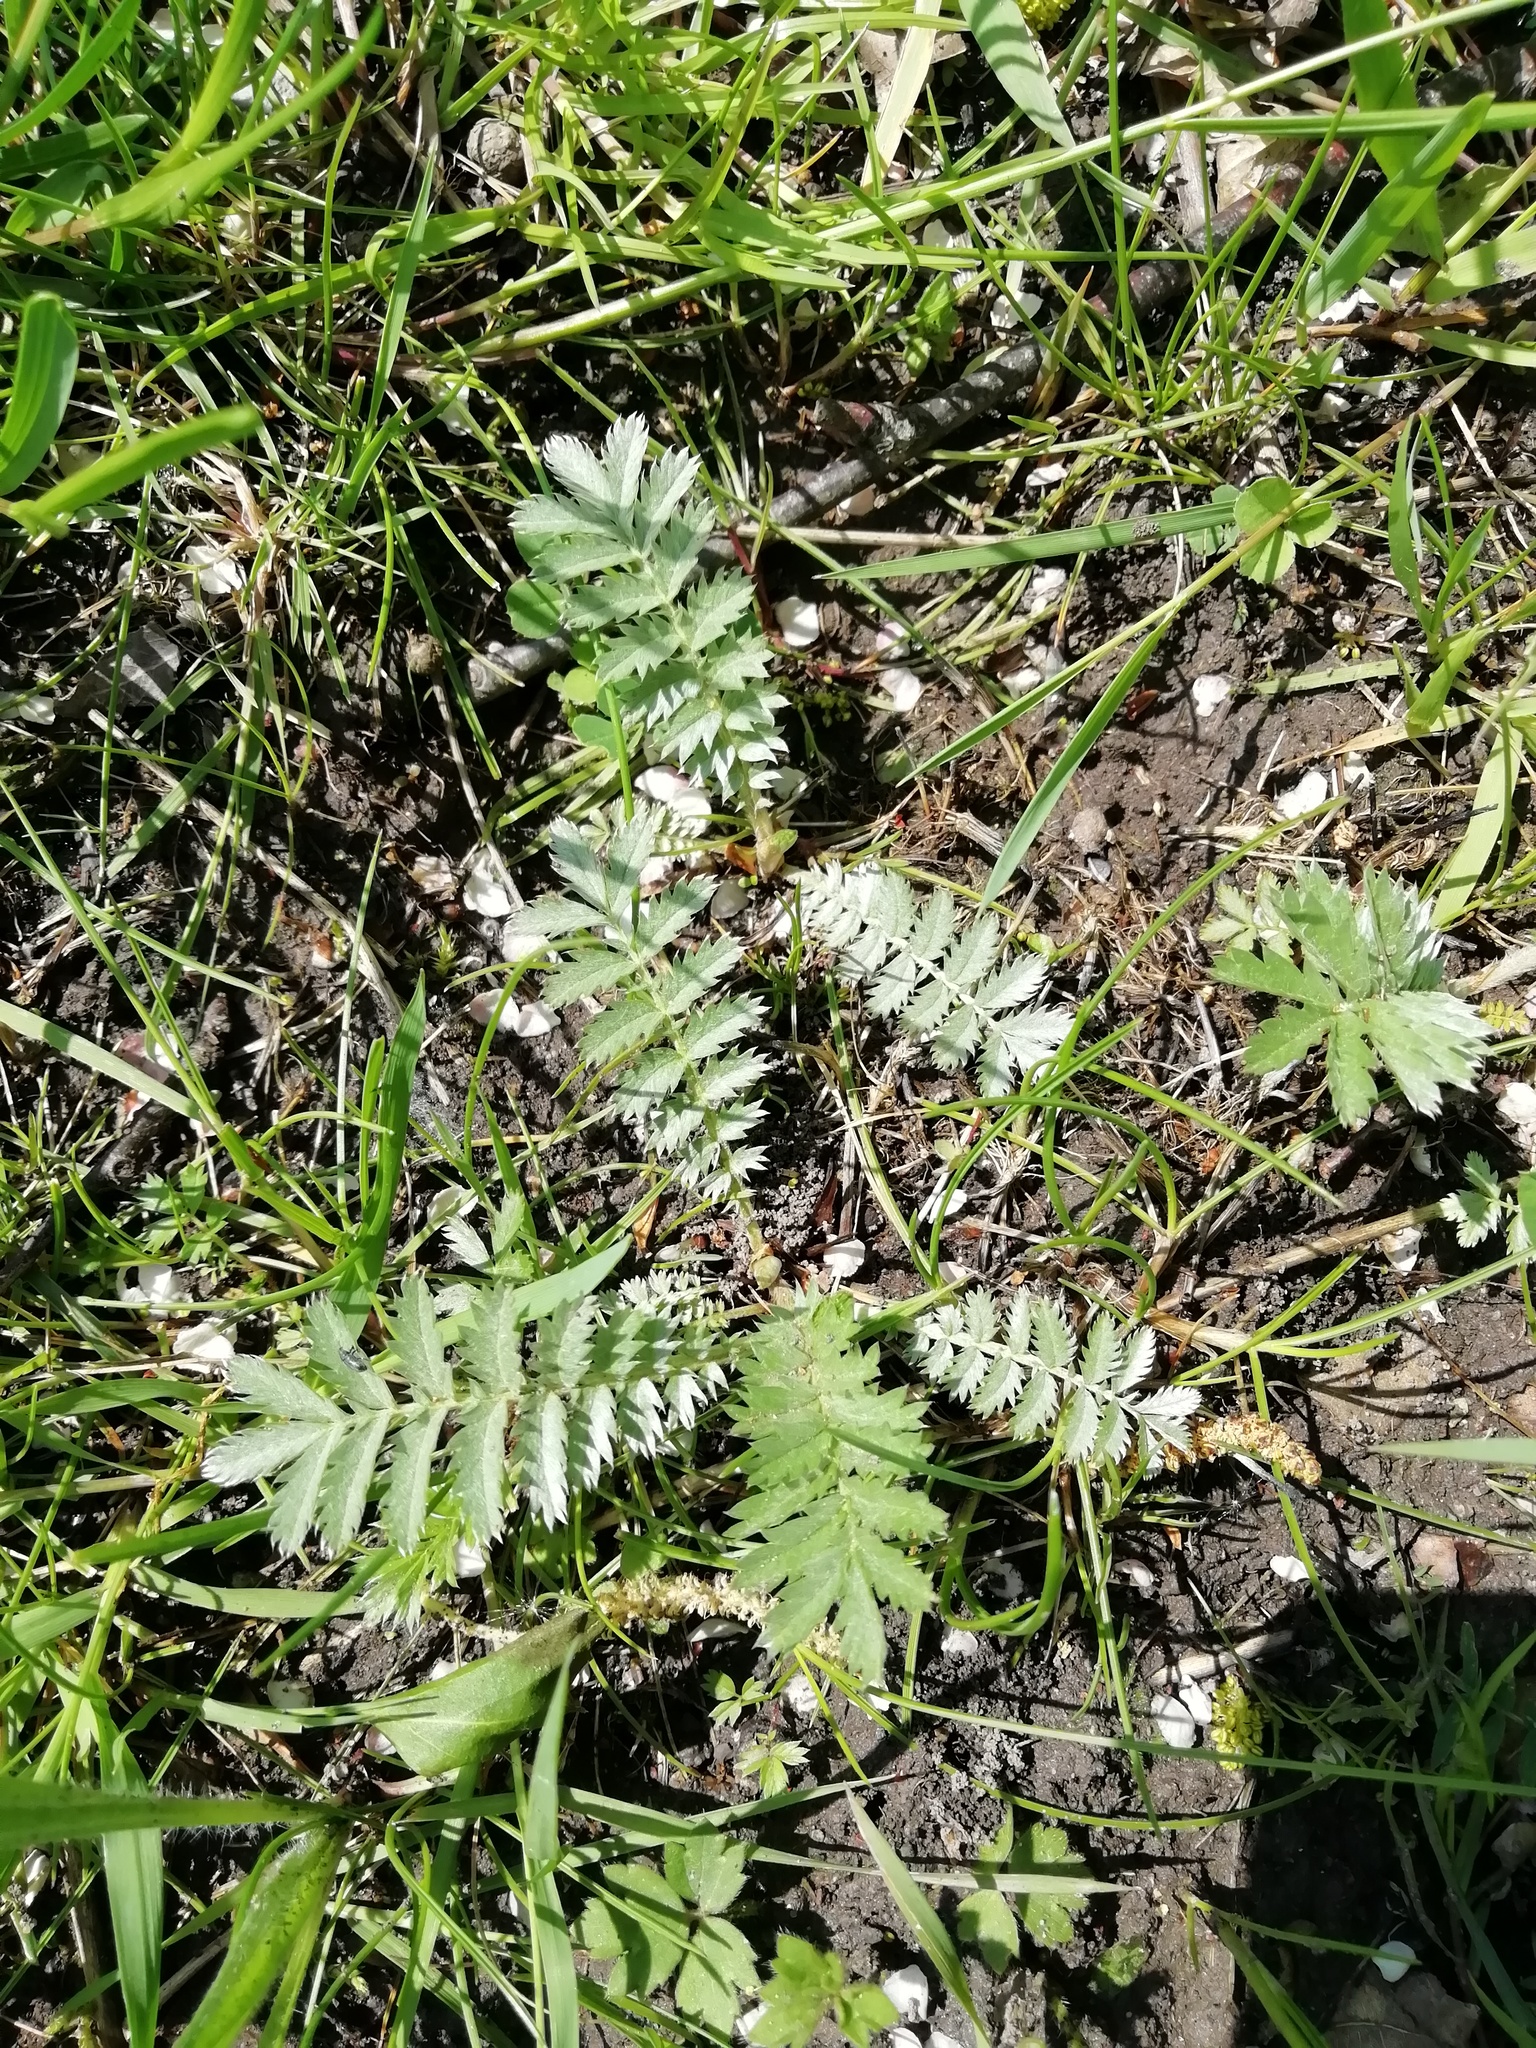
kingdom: Plantae
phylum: Tracheophyta
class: Magnoliopsida
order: Rosales
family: Rosaceae
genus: Argentina
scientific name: Argentina anserina
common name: Common silverweed
